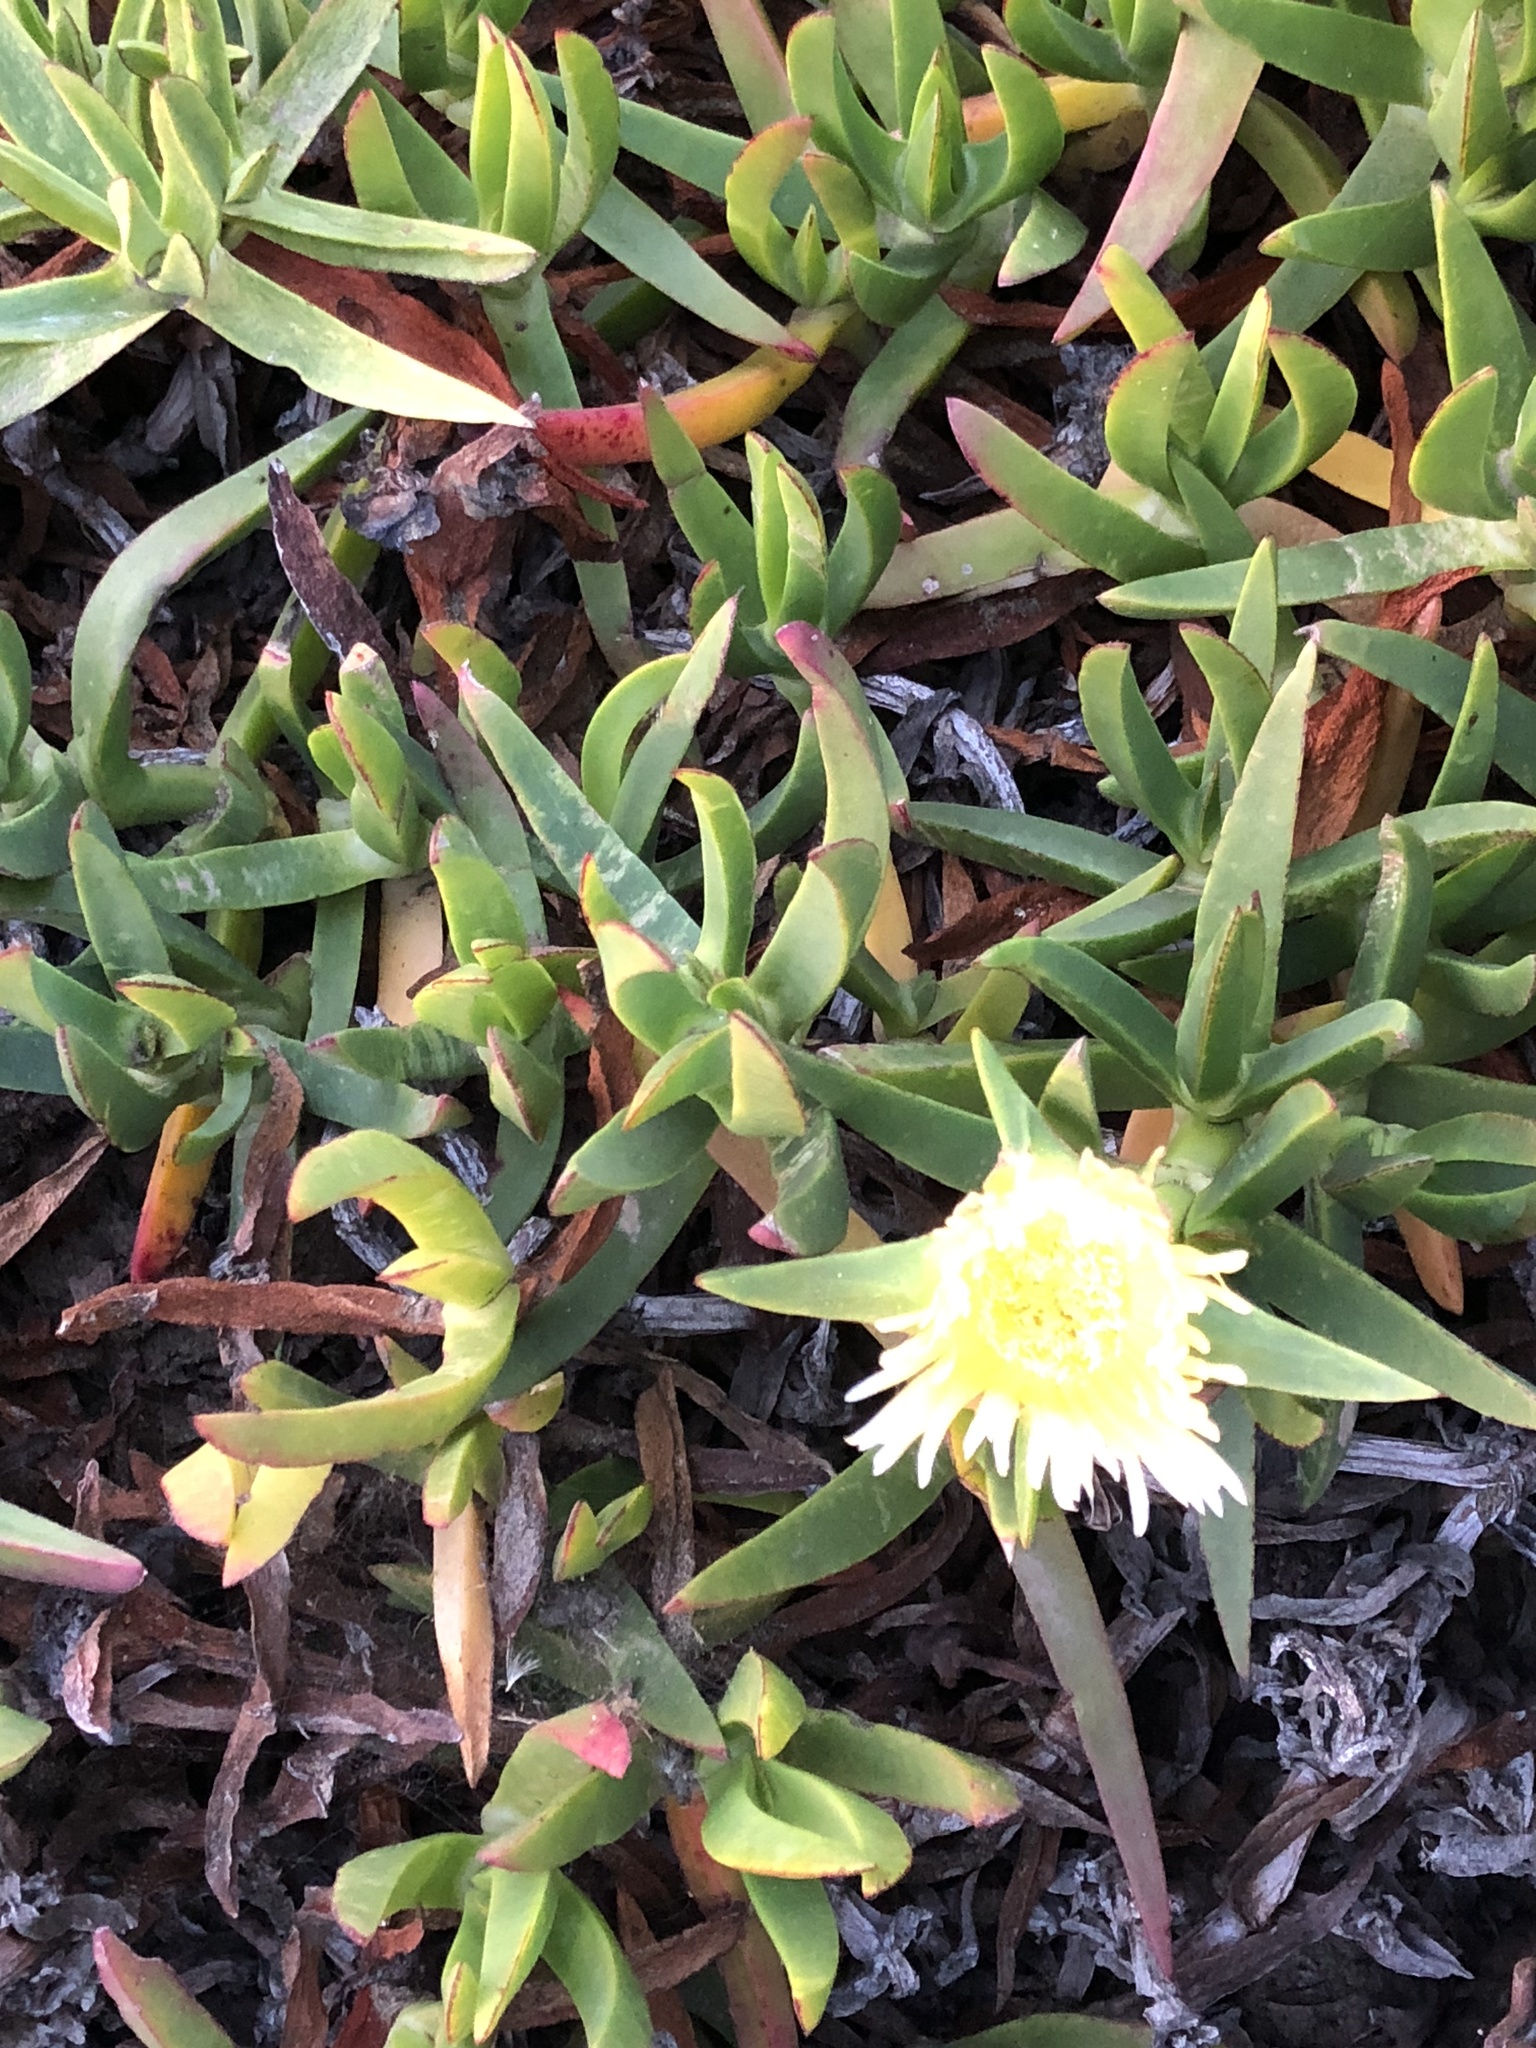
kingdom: Plantae
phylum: Tracheophyta
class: Magnoliopsida
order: Caryophyllales
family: Aizoaceae
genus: Carpobrotus
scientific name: Carpobrotus edulis
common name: Hottentot-fig
